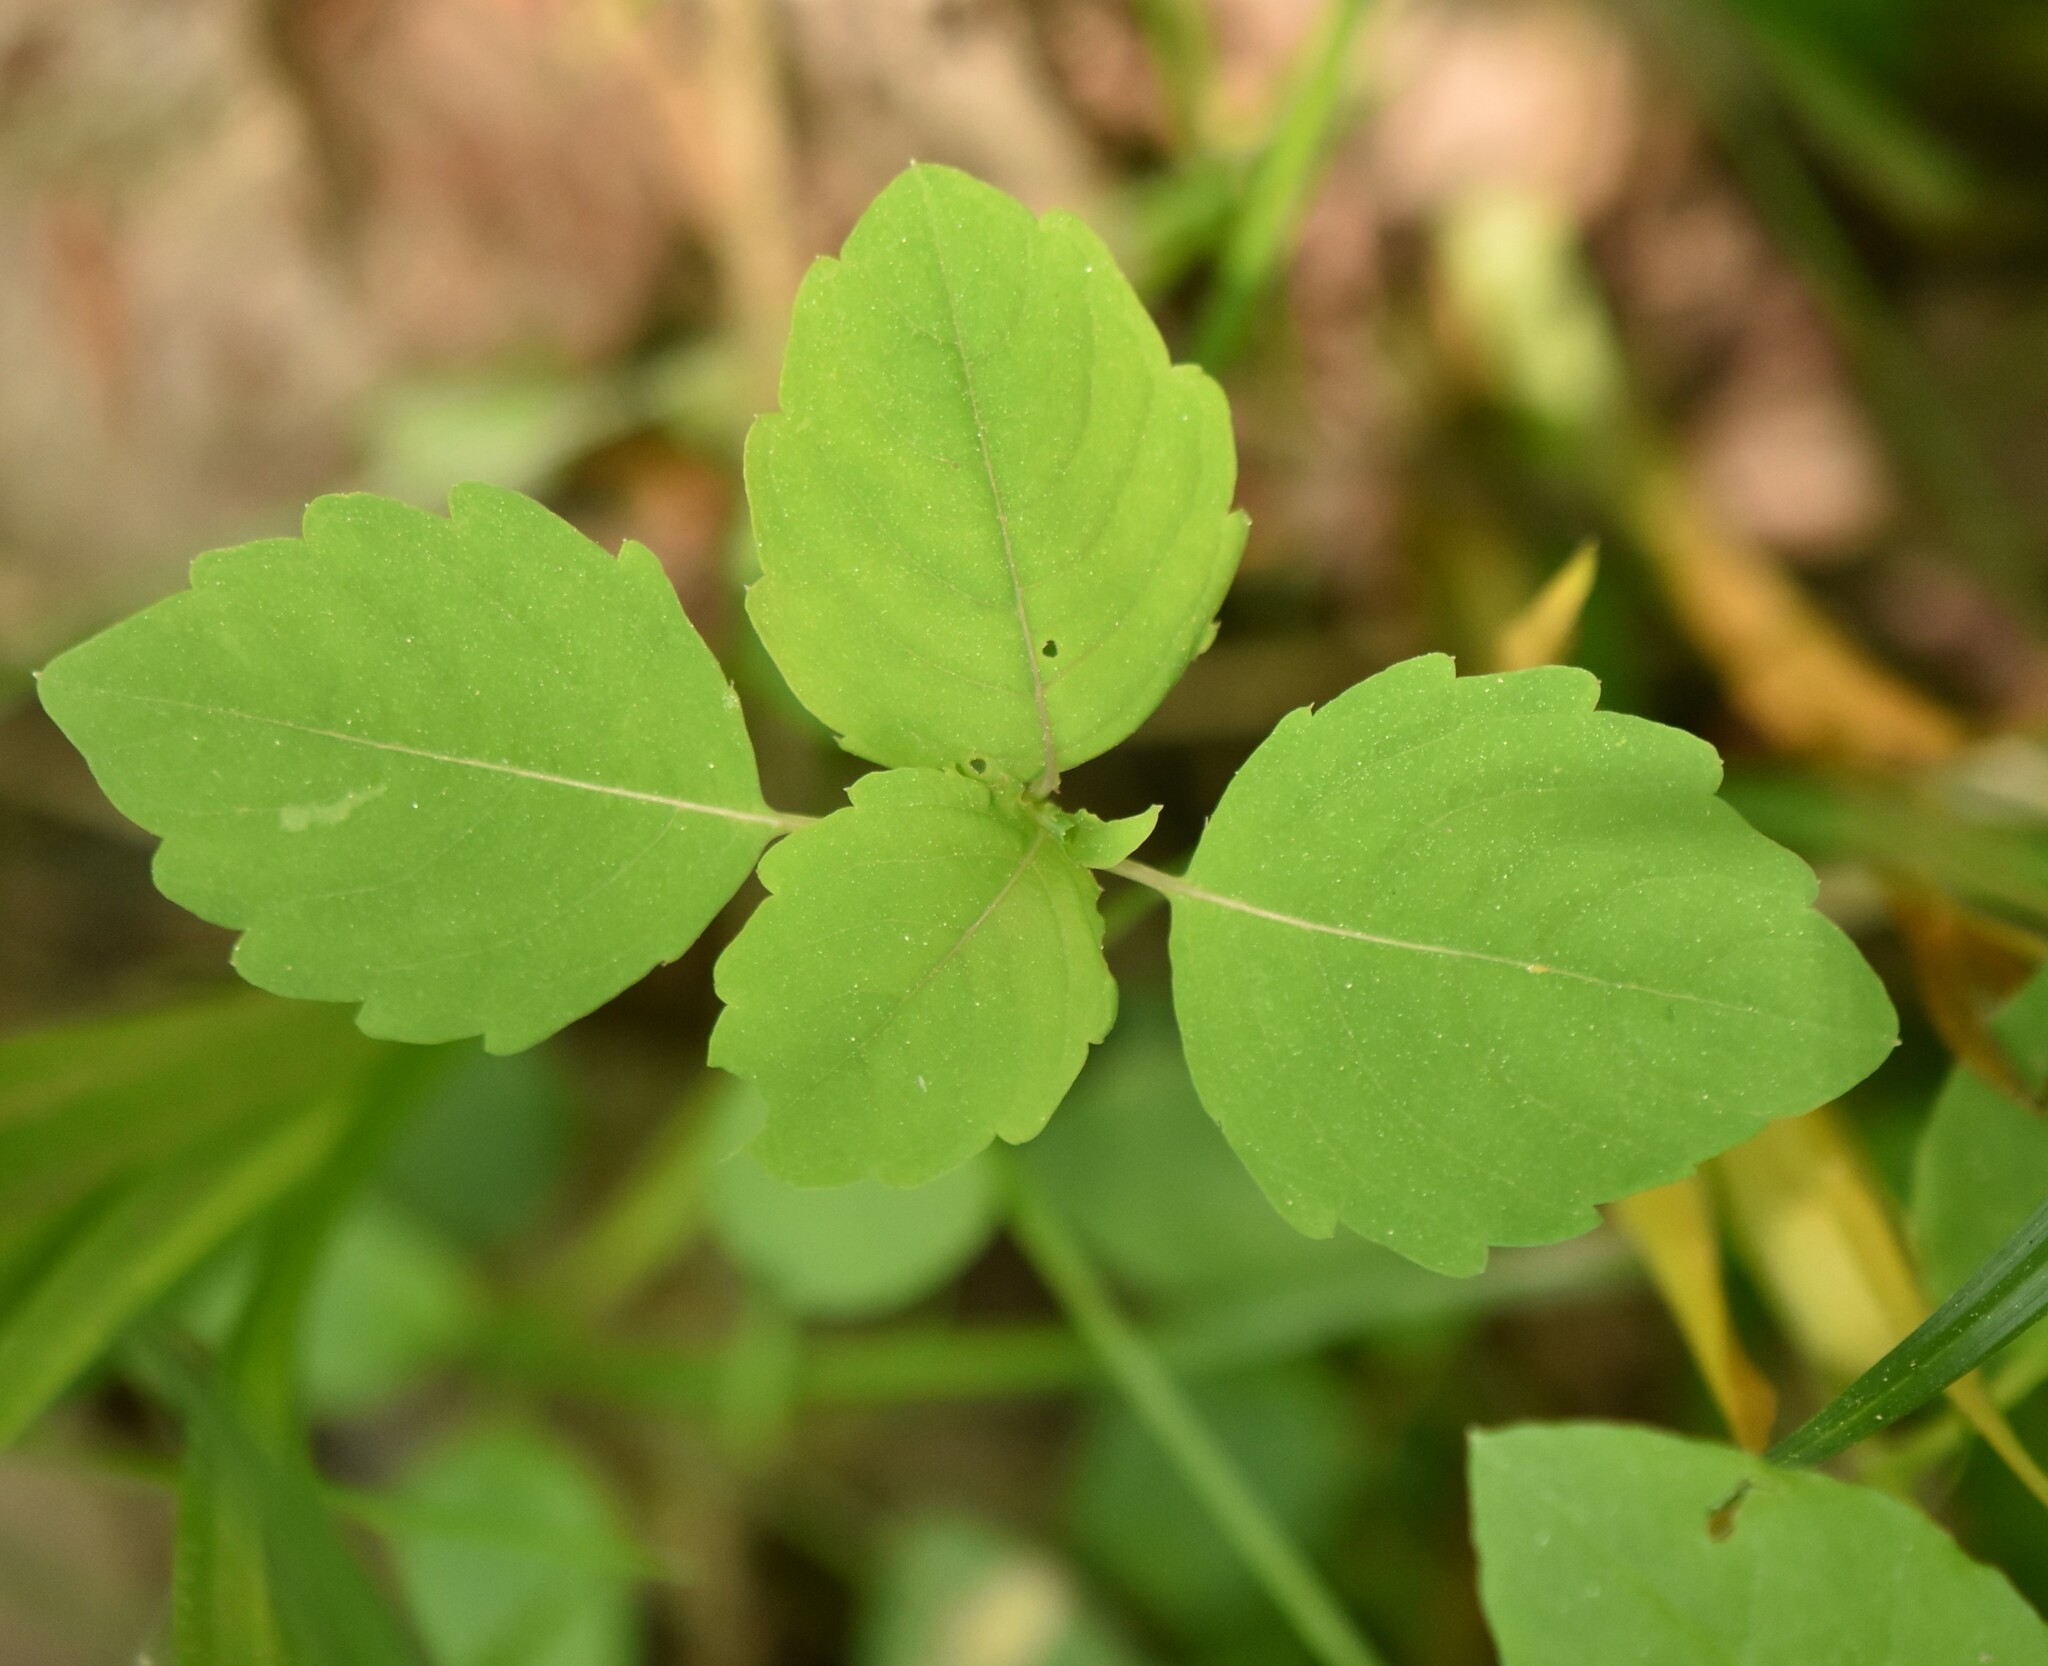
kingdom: Plantae
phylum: Tracheophyta
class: Magnoliopsida
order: Ericales
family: Balsaminaceae
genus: Impatiens
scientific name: Impatiens noli-tangere
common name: Touch-me-not balsam
